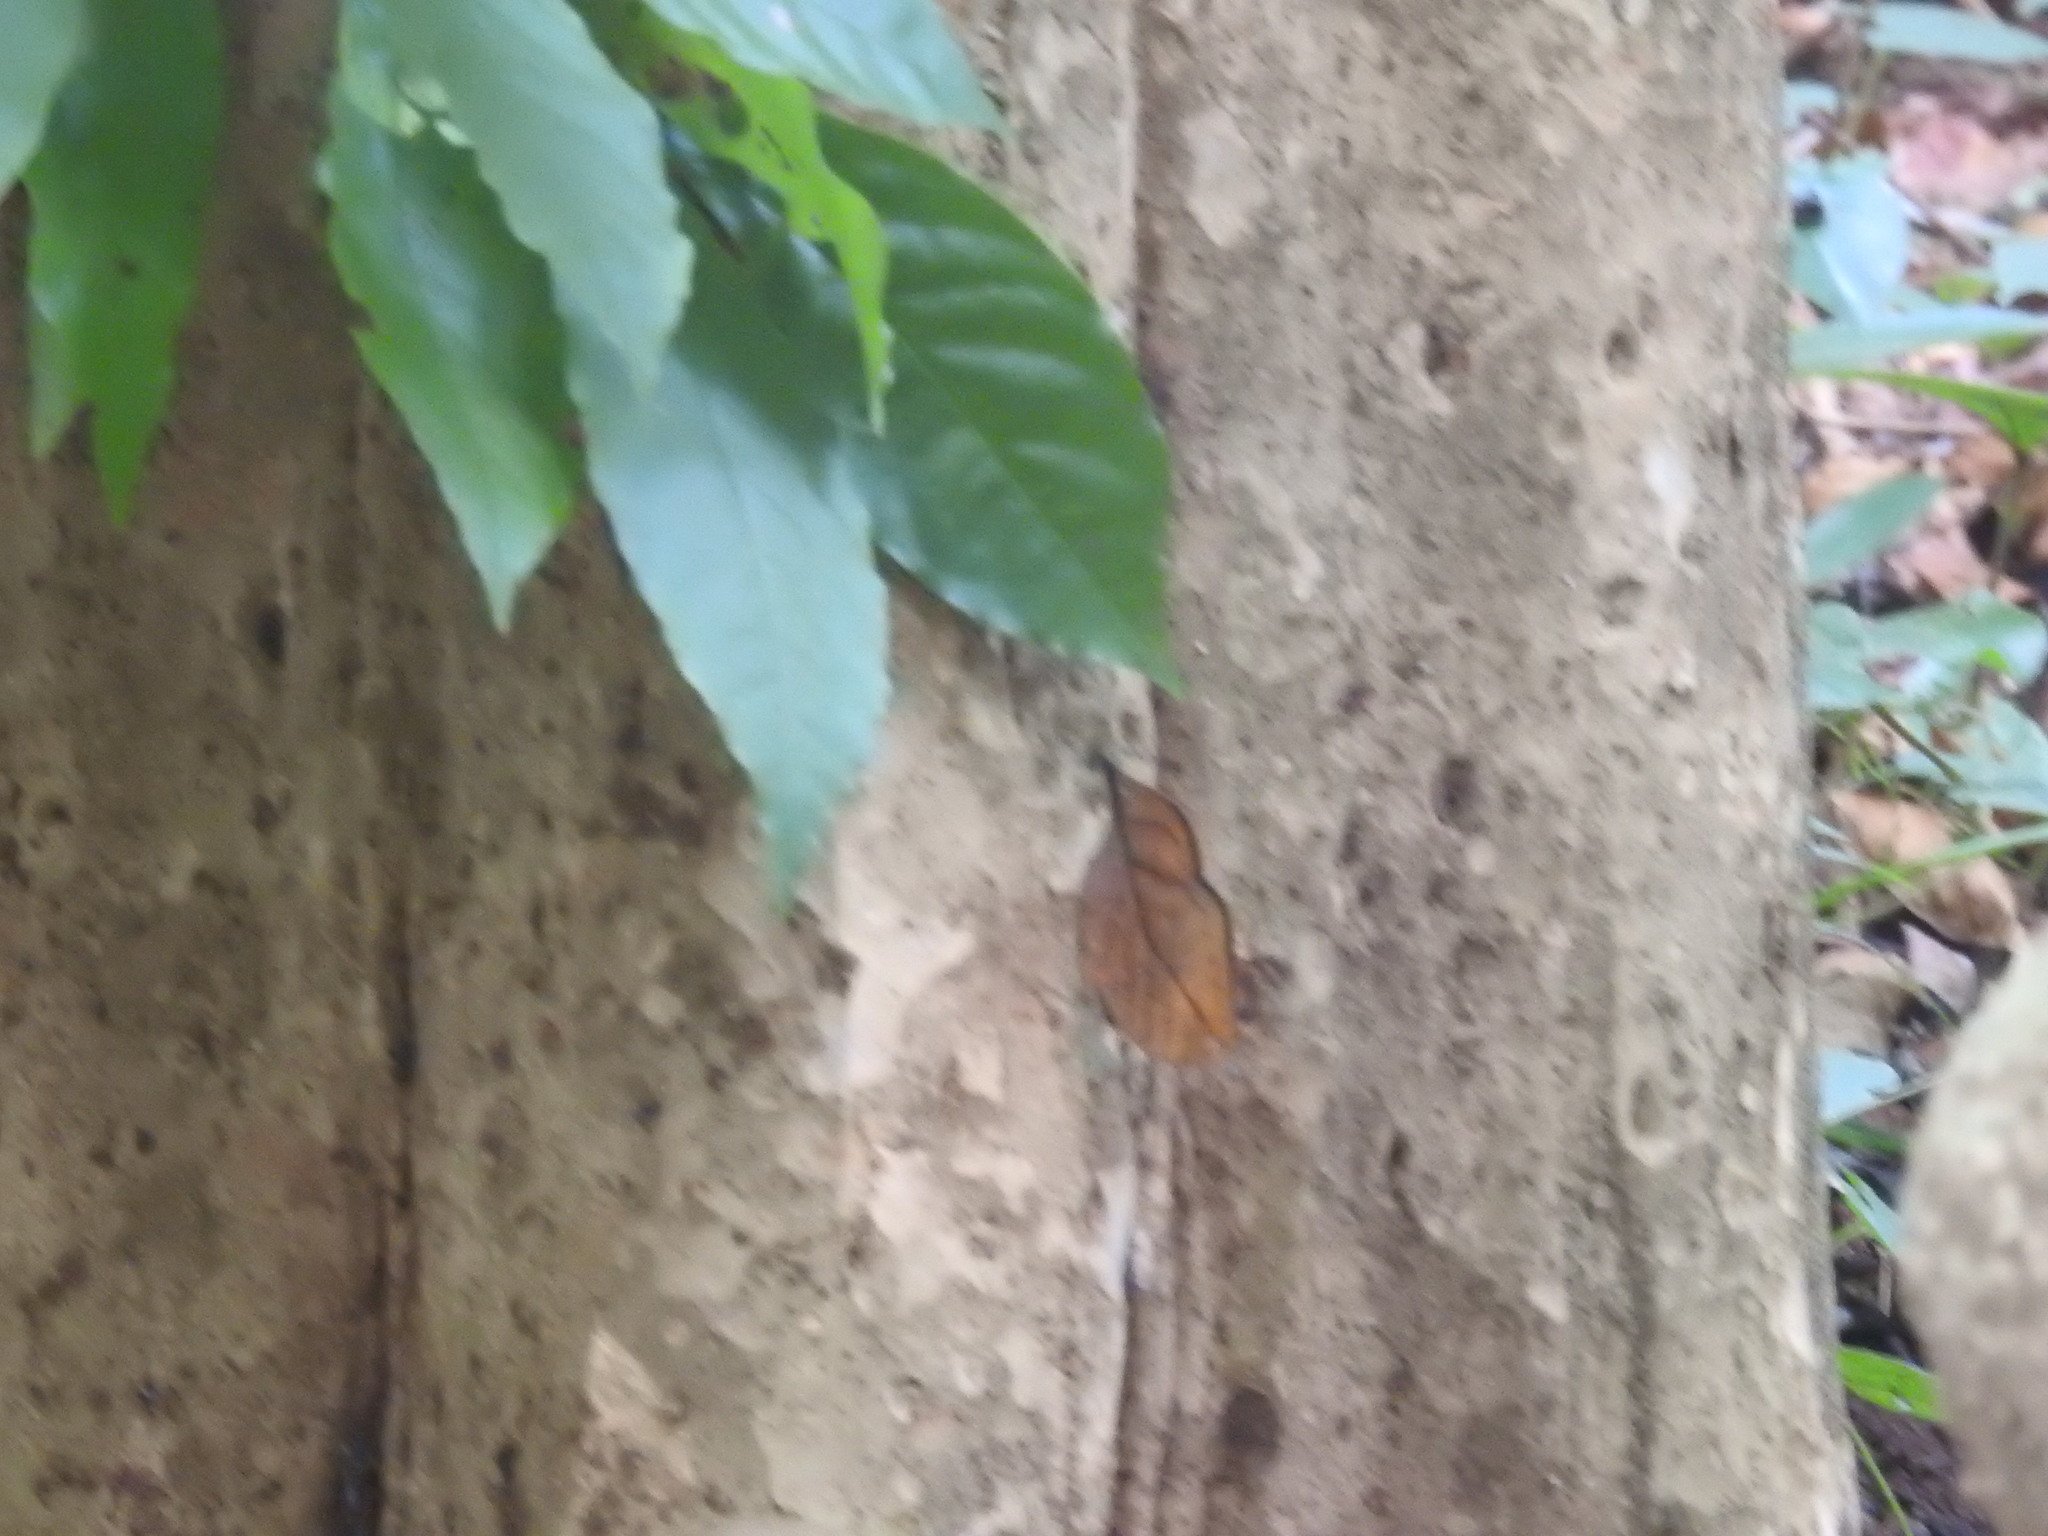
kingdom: Animalia
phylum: Arthropoda
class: Insecta
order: Lepidoptera
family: Nymphalidae
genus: Kallima
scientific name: Kallima inachus
